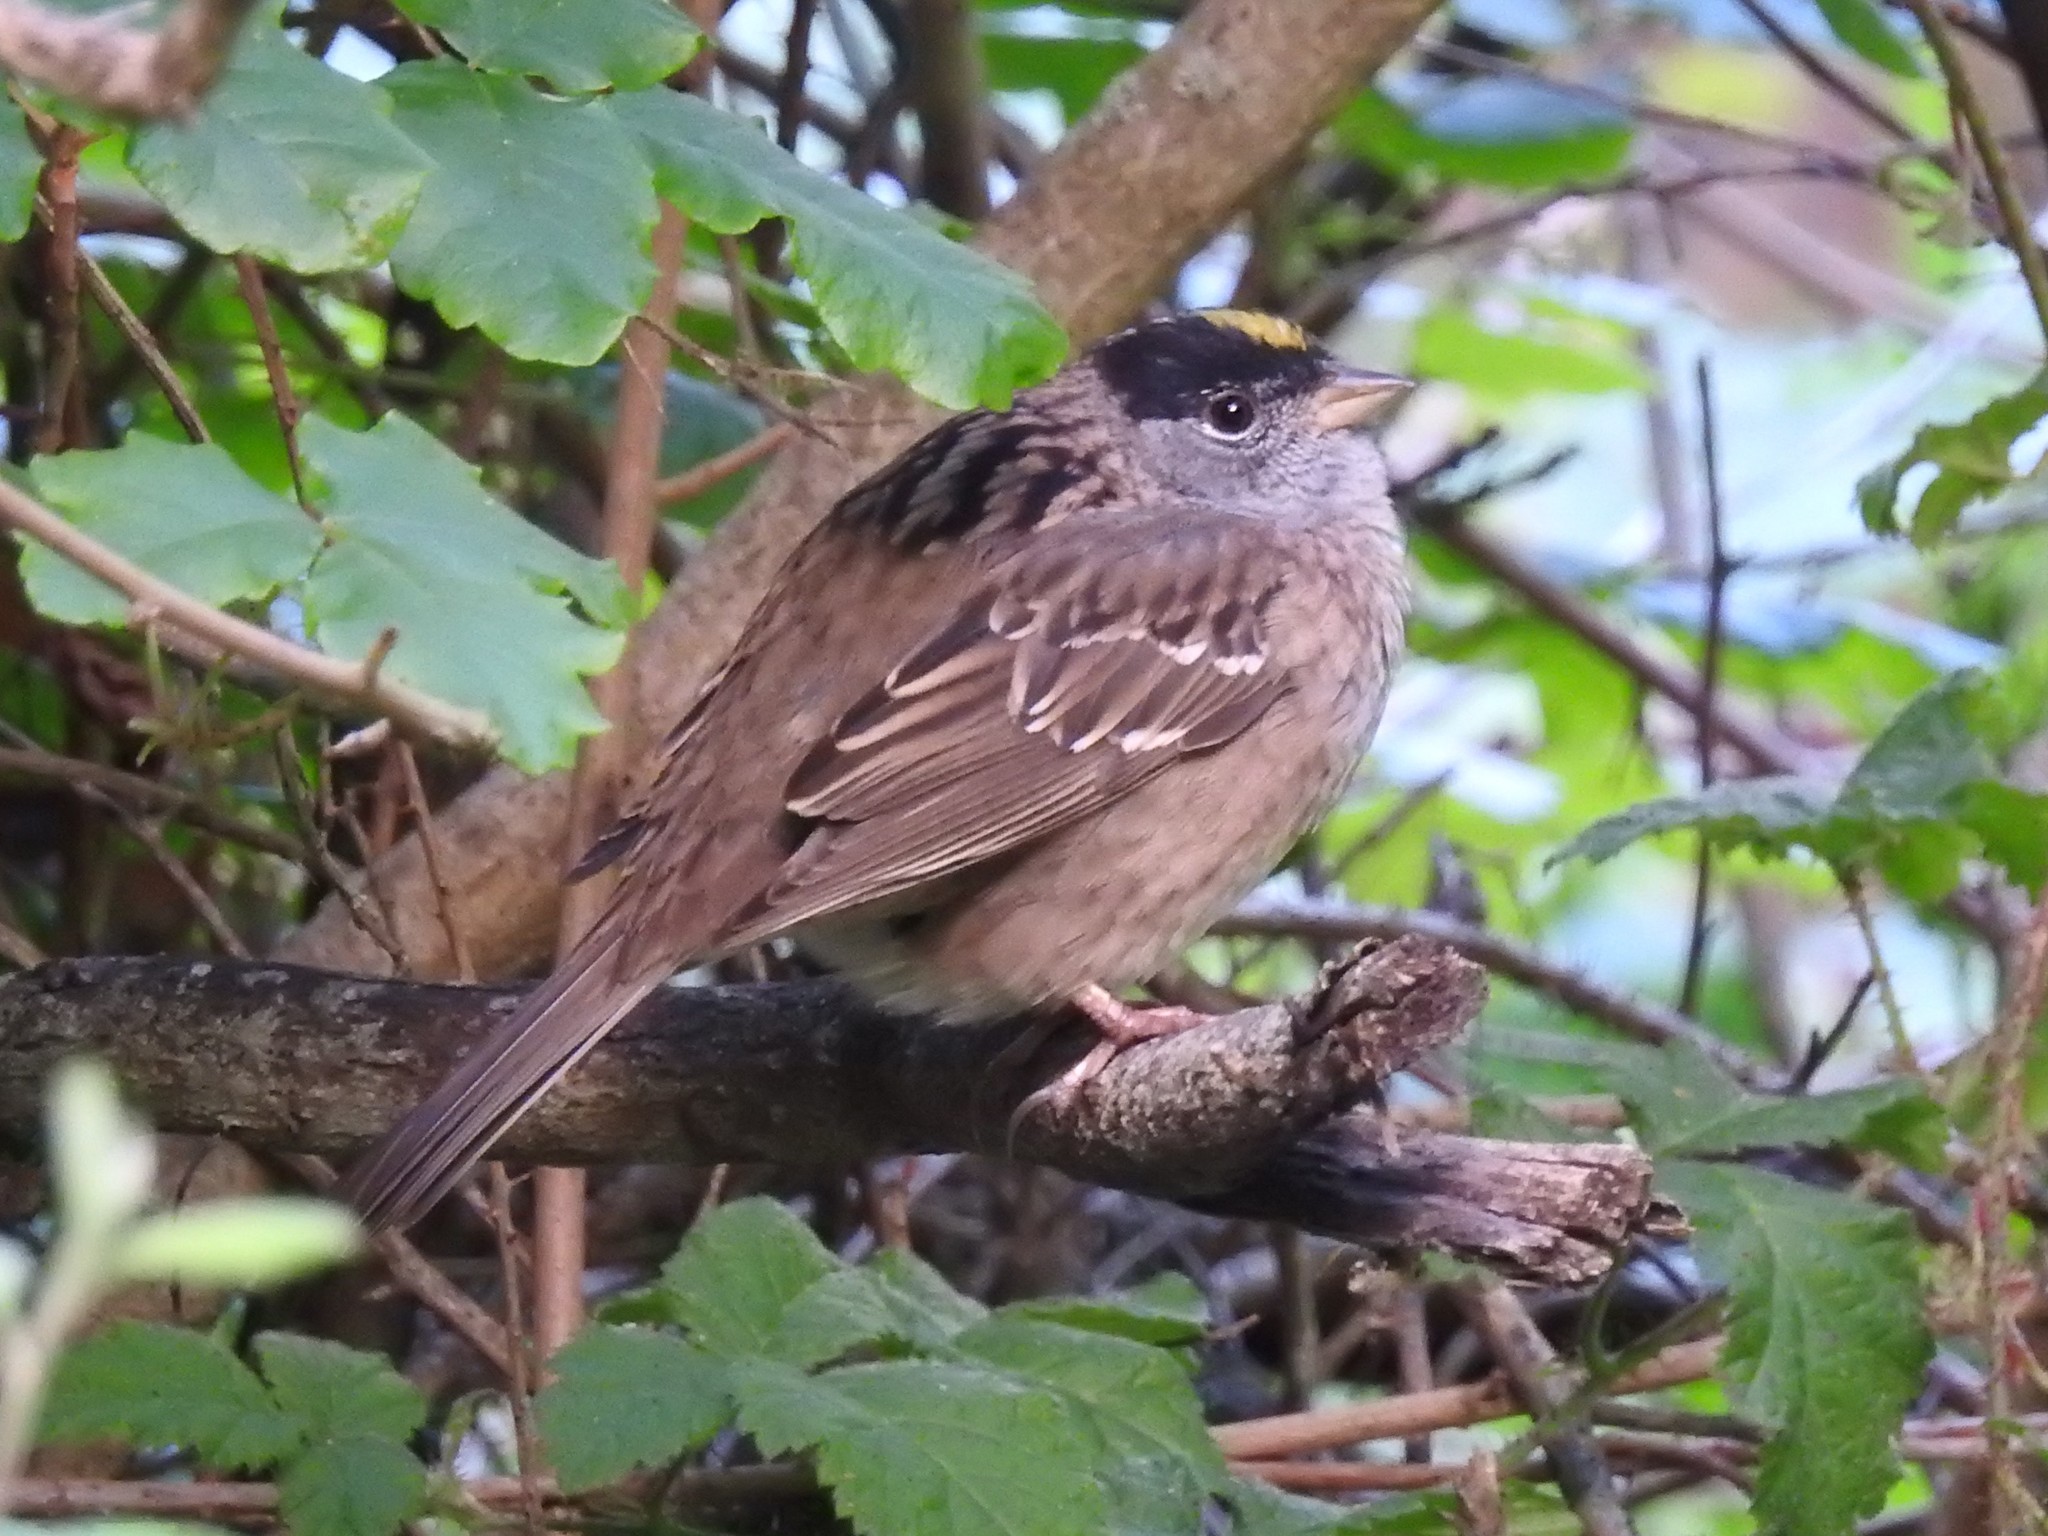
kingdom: Animalia
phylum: Chordata
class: Aves
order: Passeriformes
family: Passerellidae
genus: Zonotrichia
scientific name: Zonotrichia atricapilla
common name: Golden-crowned sparrow
